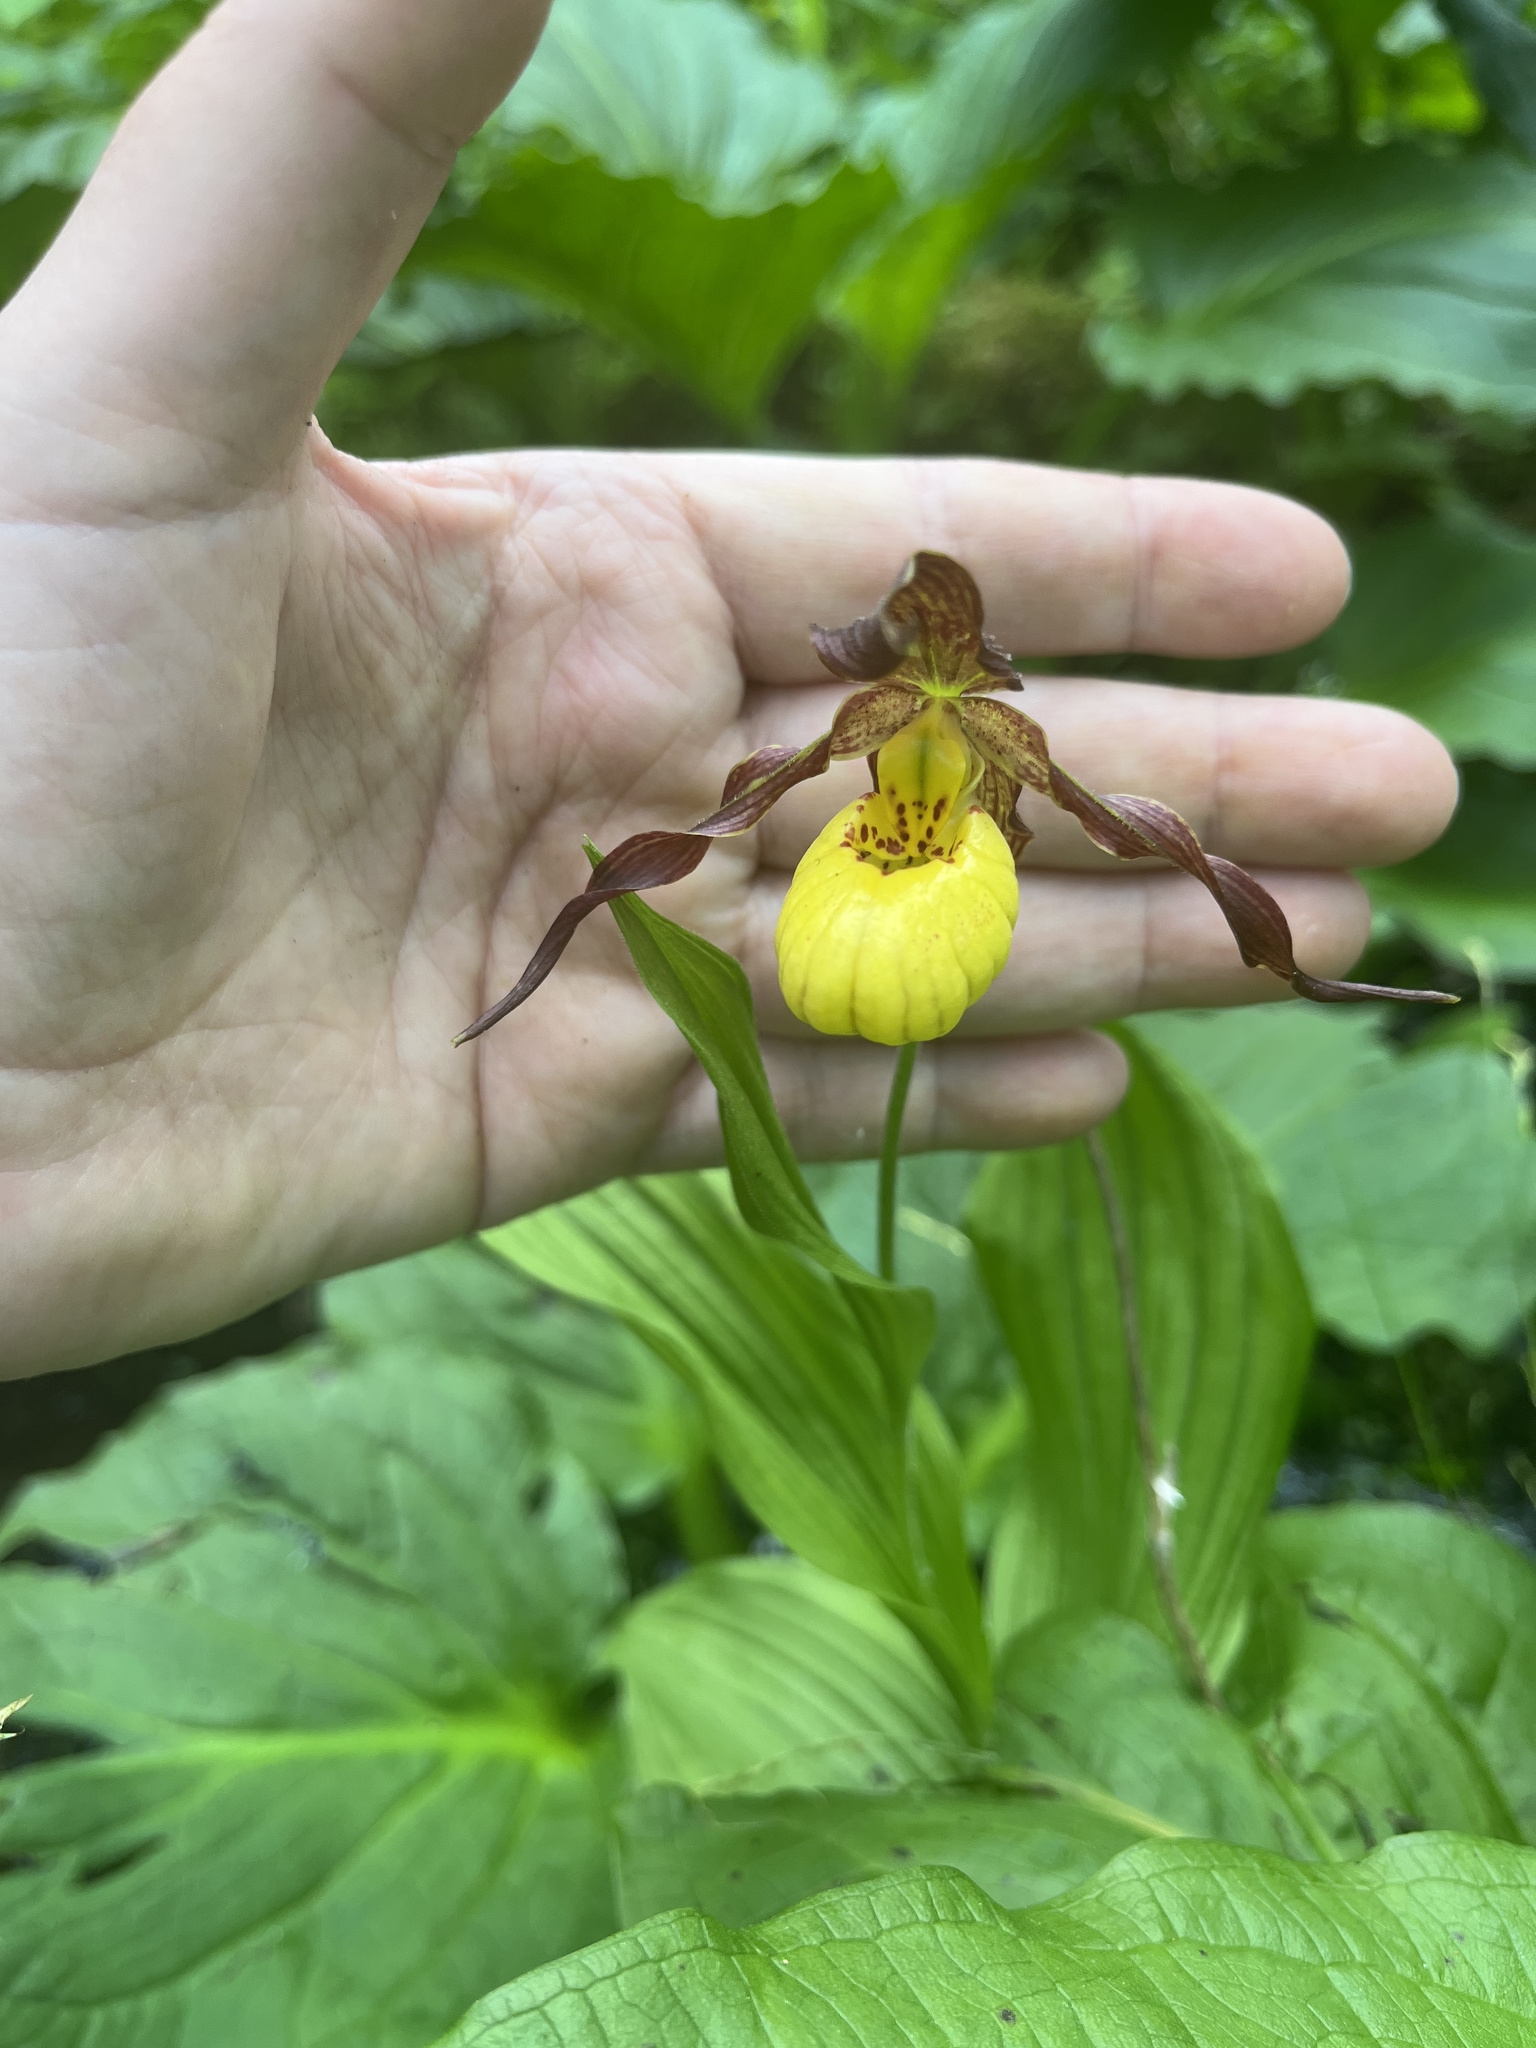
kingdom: Plantae
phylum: Tracheophyta
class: Liliopsida
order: Asparagales
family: Orchidaceae
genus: Cypripedium
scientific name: Cypripedium parviflorum
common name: American yellow lady's-slipper
